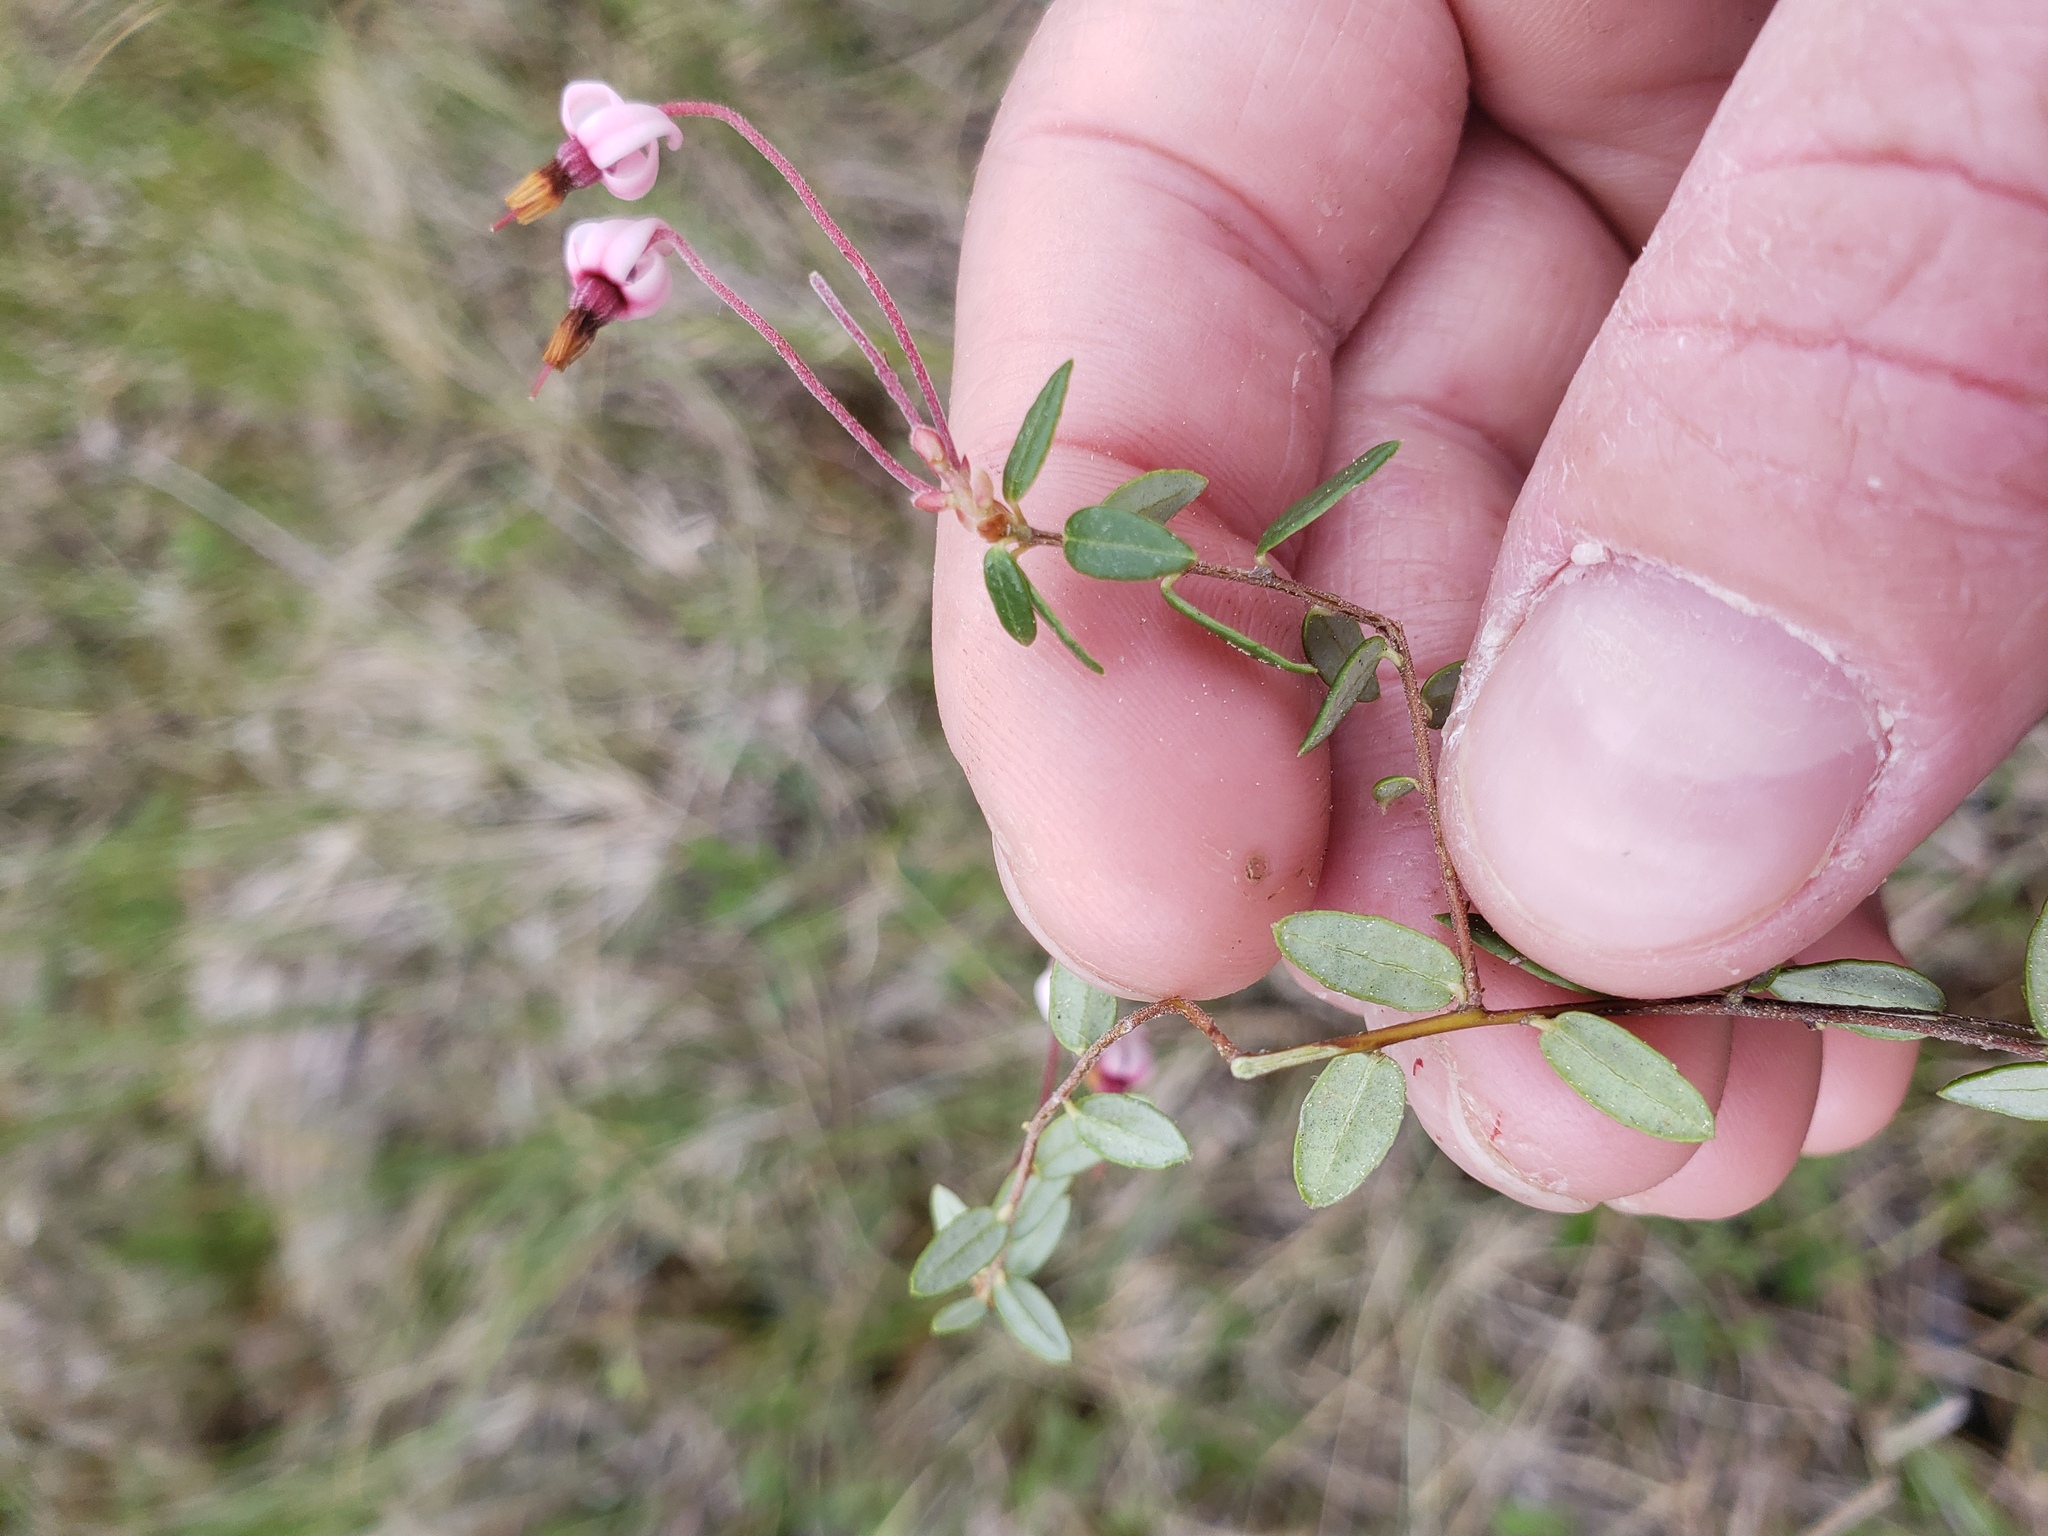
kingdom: Plantae
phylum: Tracheophyta
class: Magnoliopsida
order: Ericales
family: Ericaceae
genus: Vaccinium
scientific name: Vaccinium oxycoccos
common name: Cranberry
